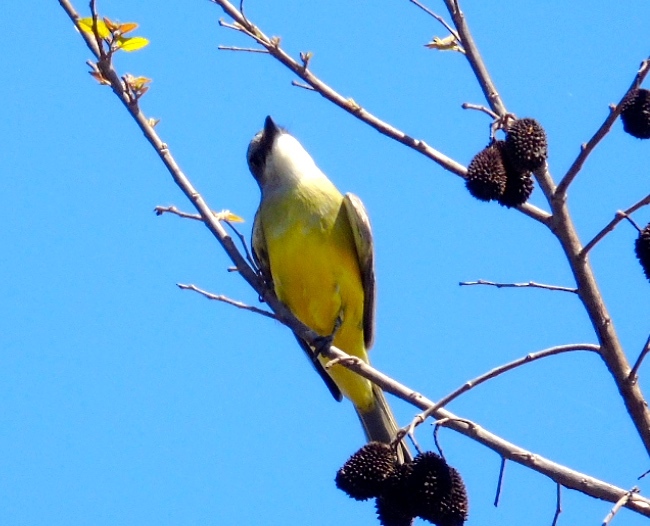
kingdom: Animalia
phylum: Chordata
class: Aves
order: Passeriformes
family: Tyrannidae
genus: Tyrannus
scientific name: Tyrannus melancholicus
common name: Tropical kingbird
